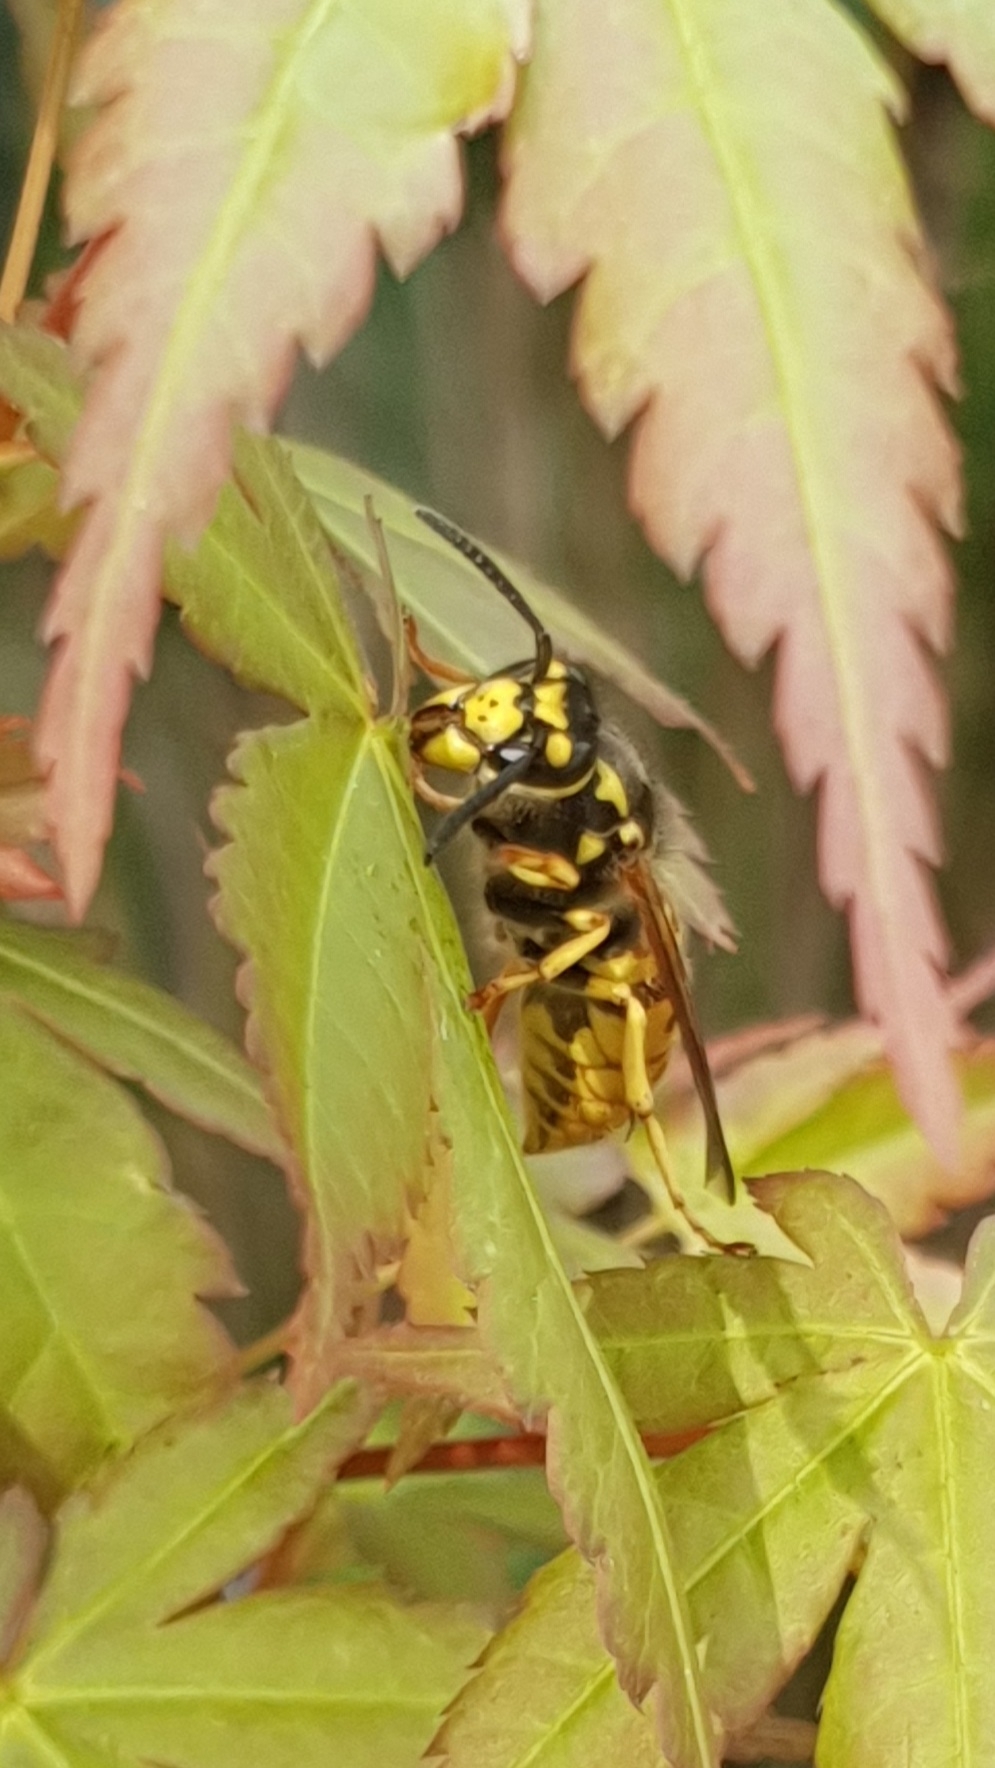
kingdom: Animalia
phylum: Arthropoda
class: Insecta
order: Hymenoptera
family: Vespidae
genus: Vespula
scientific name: Vespula germanica
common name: German wasp
